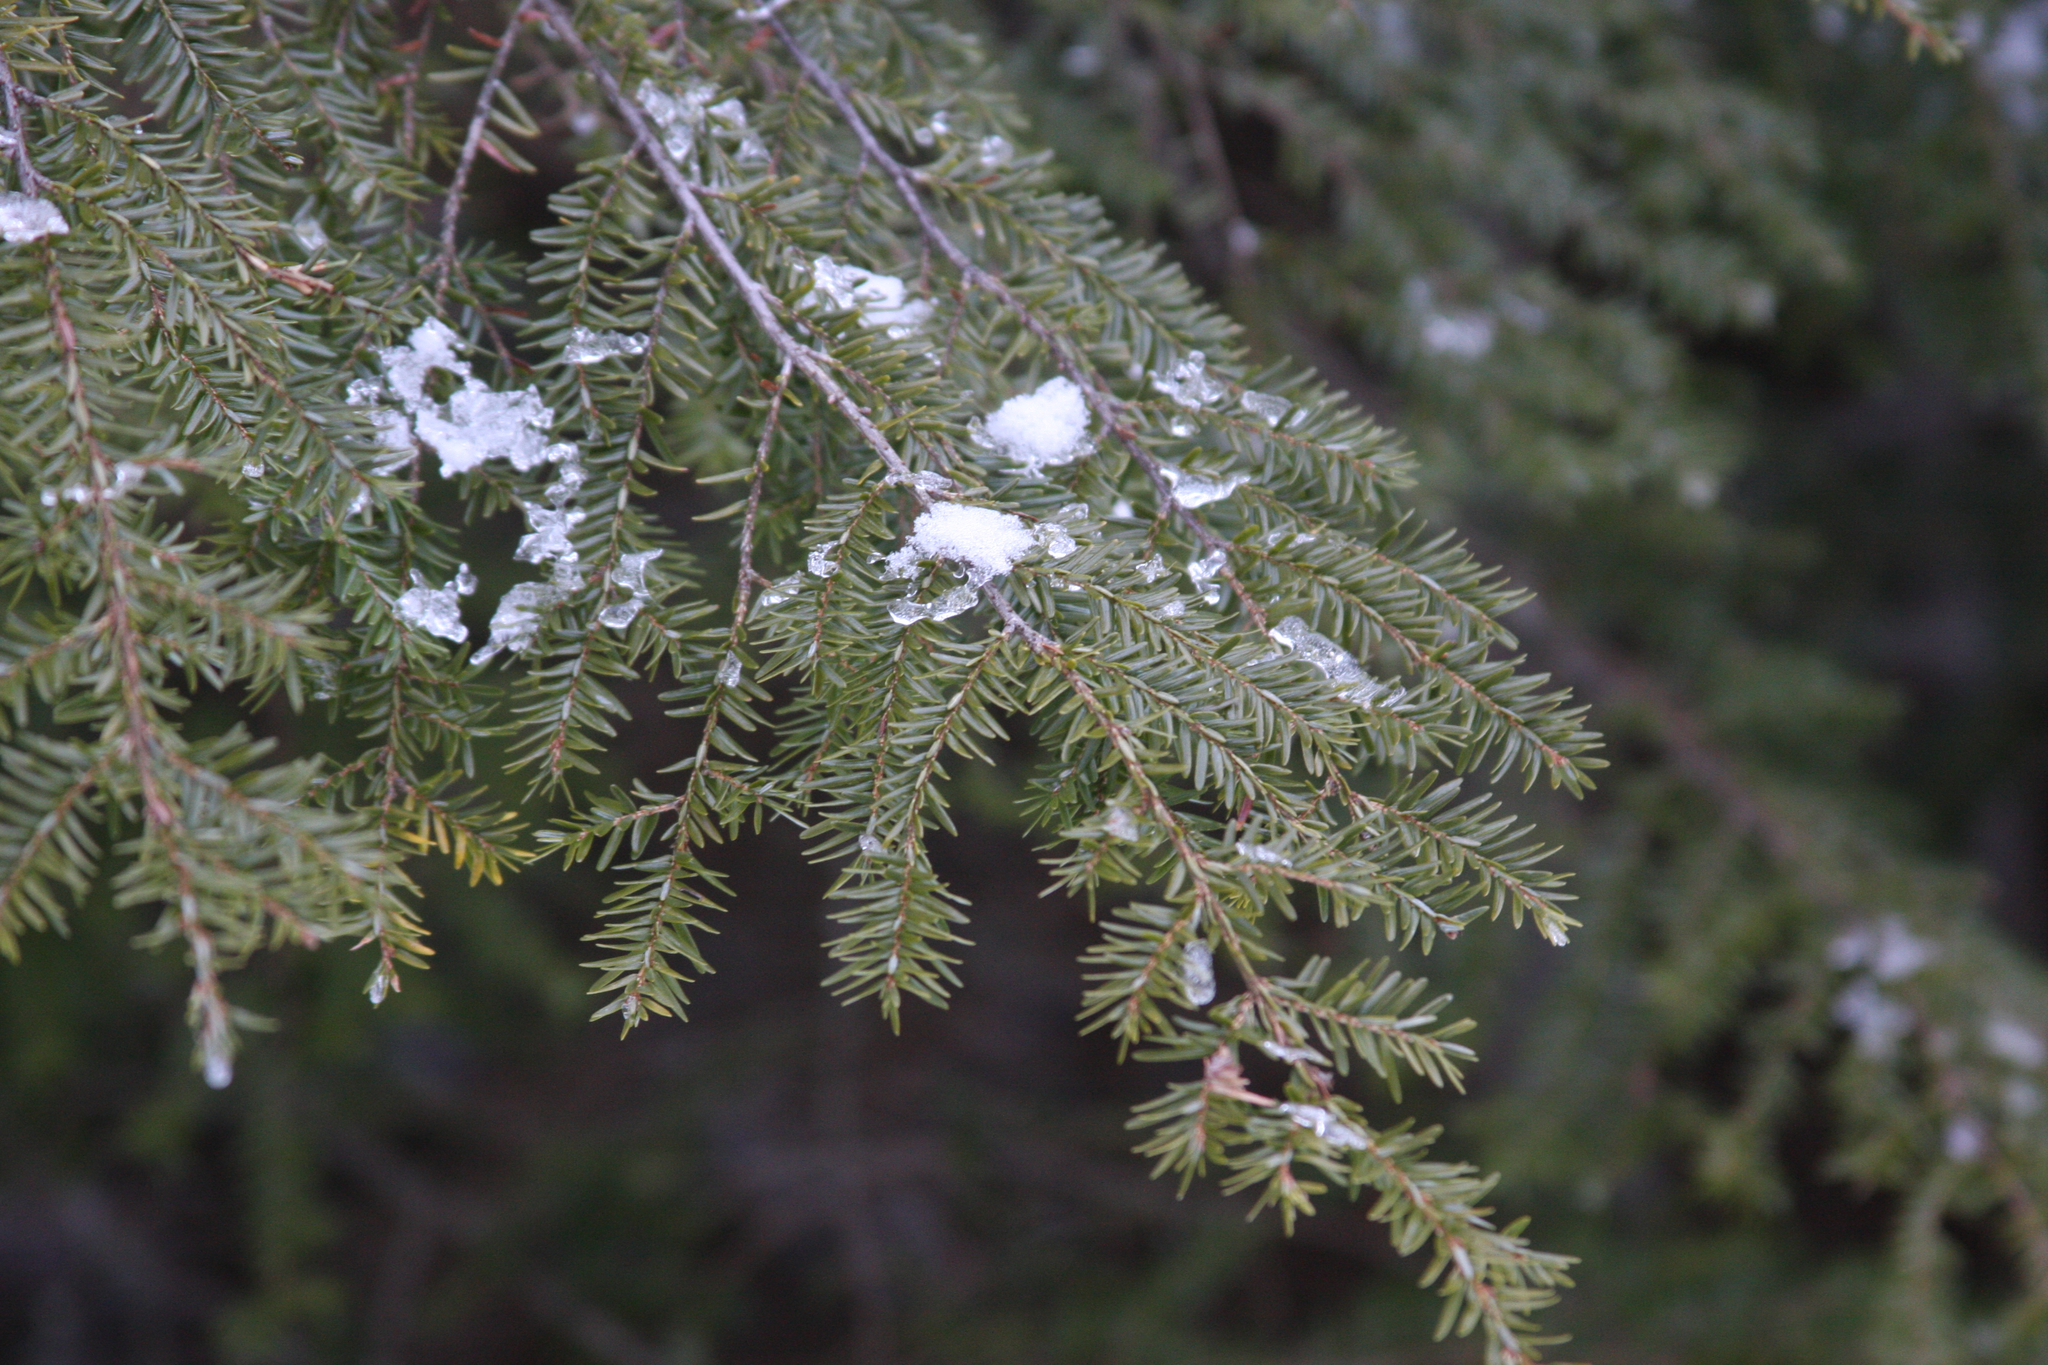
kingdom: Plantae
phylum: Tracheophyta
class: Pinopsida
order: Pinales
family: Pinaceae
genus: Tsuga
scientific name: Tsuga canadensis
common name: Eastern hemlock
